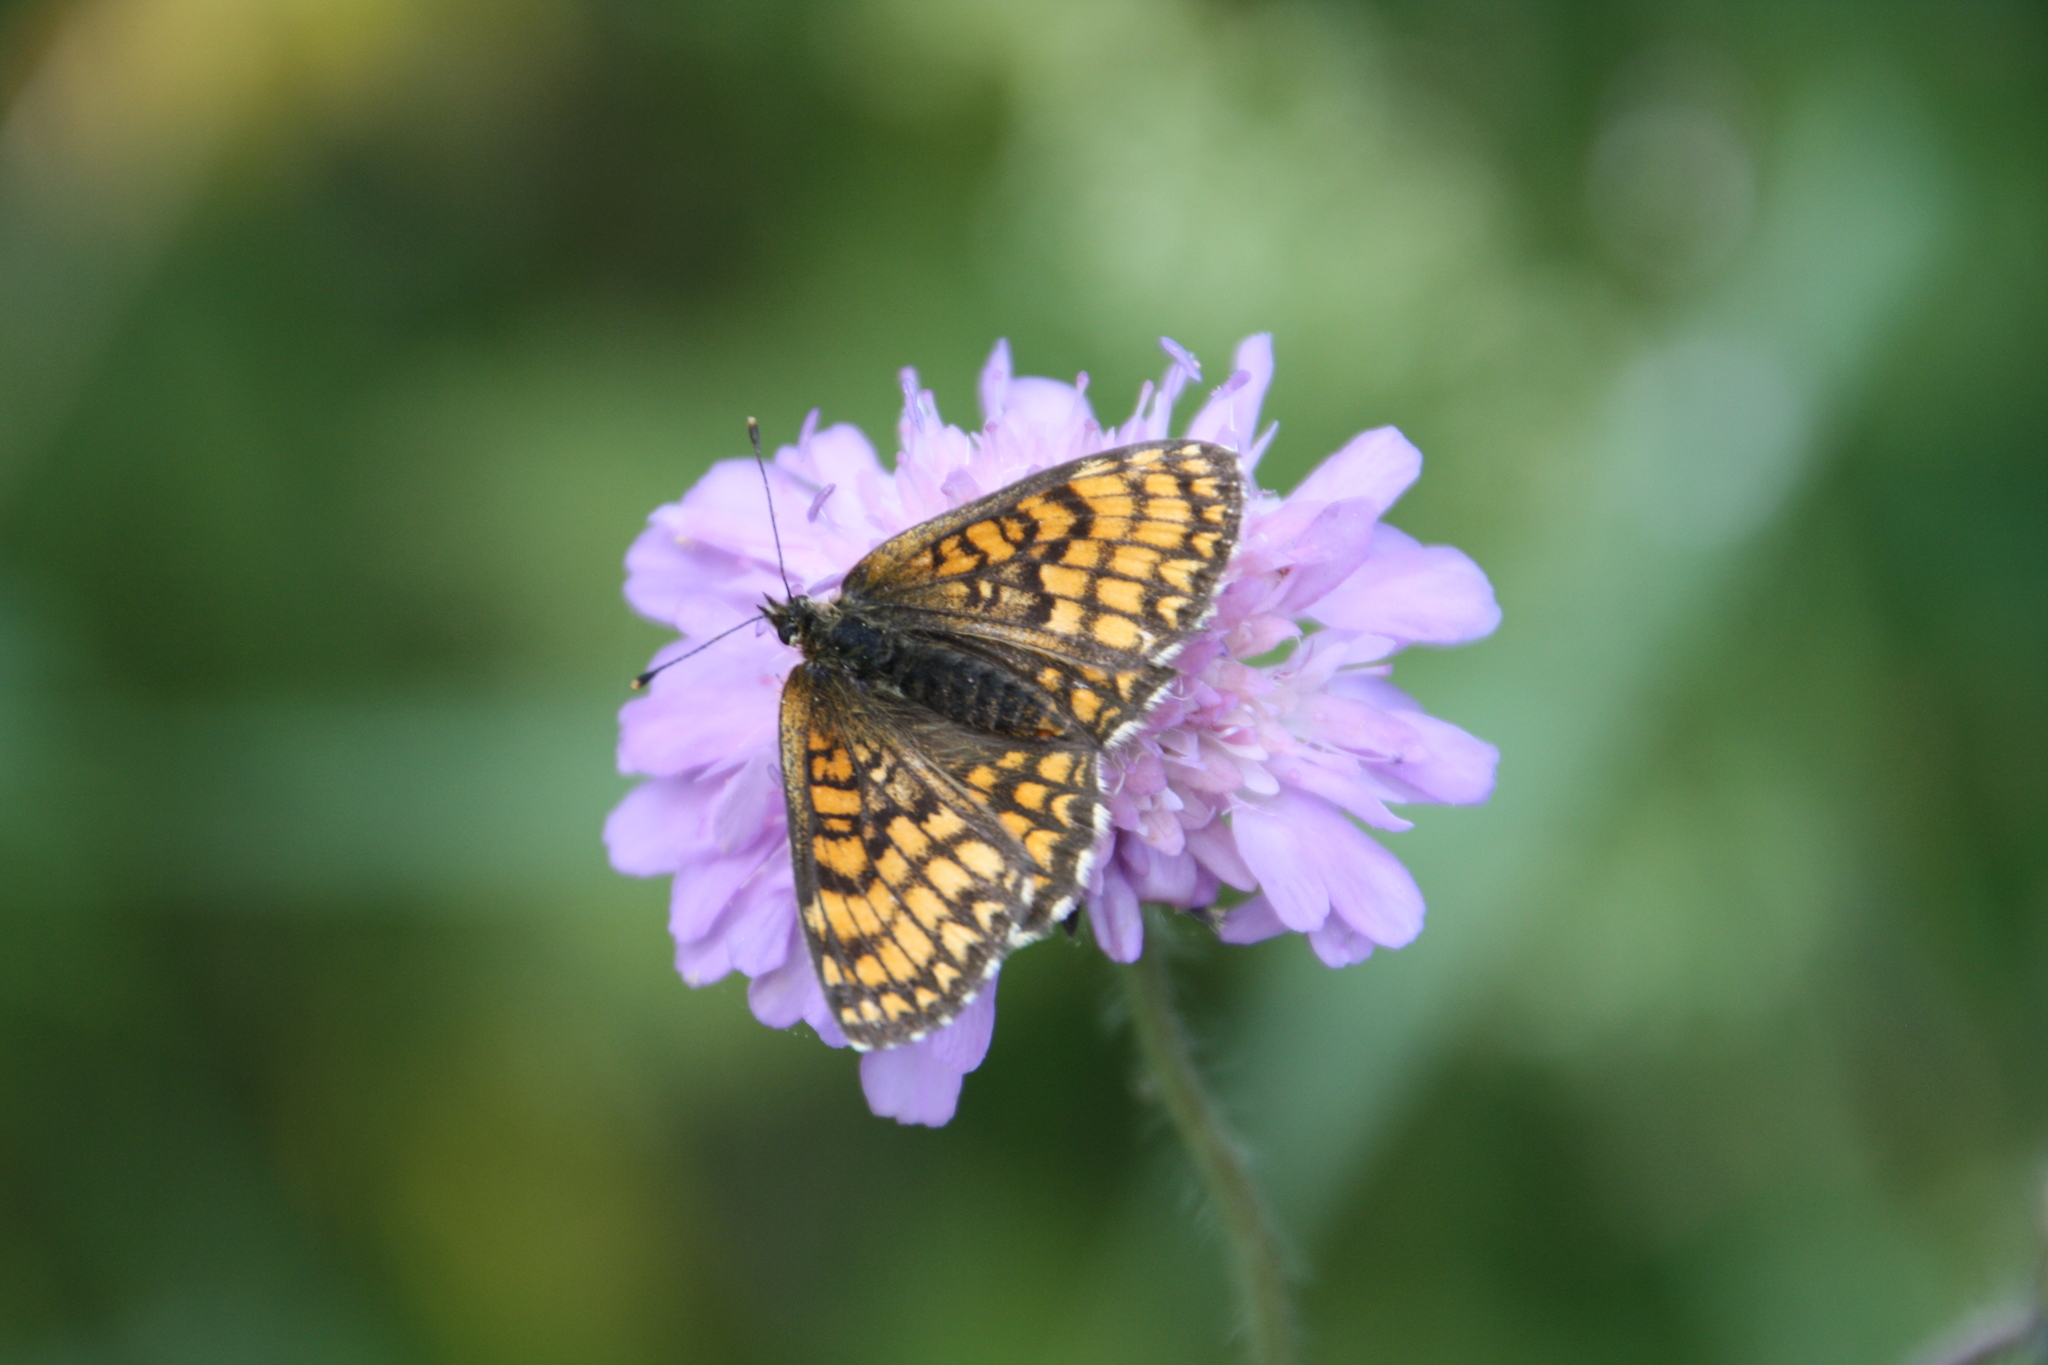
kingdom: Animalia
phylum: Arthropoda
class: Insecta
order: Lepidoptera
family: Nymphalidae
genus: Melitaea
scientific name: Melitaea athalia
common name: Heath fritillary
